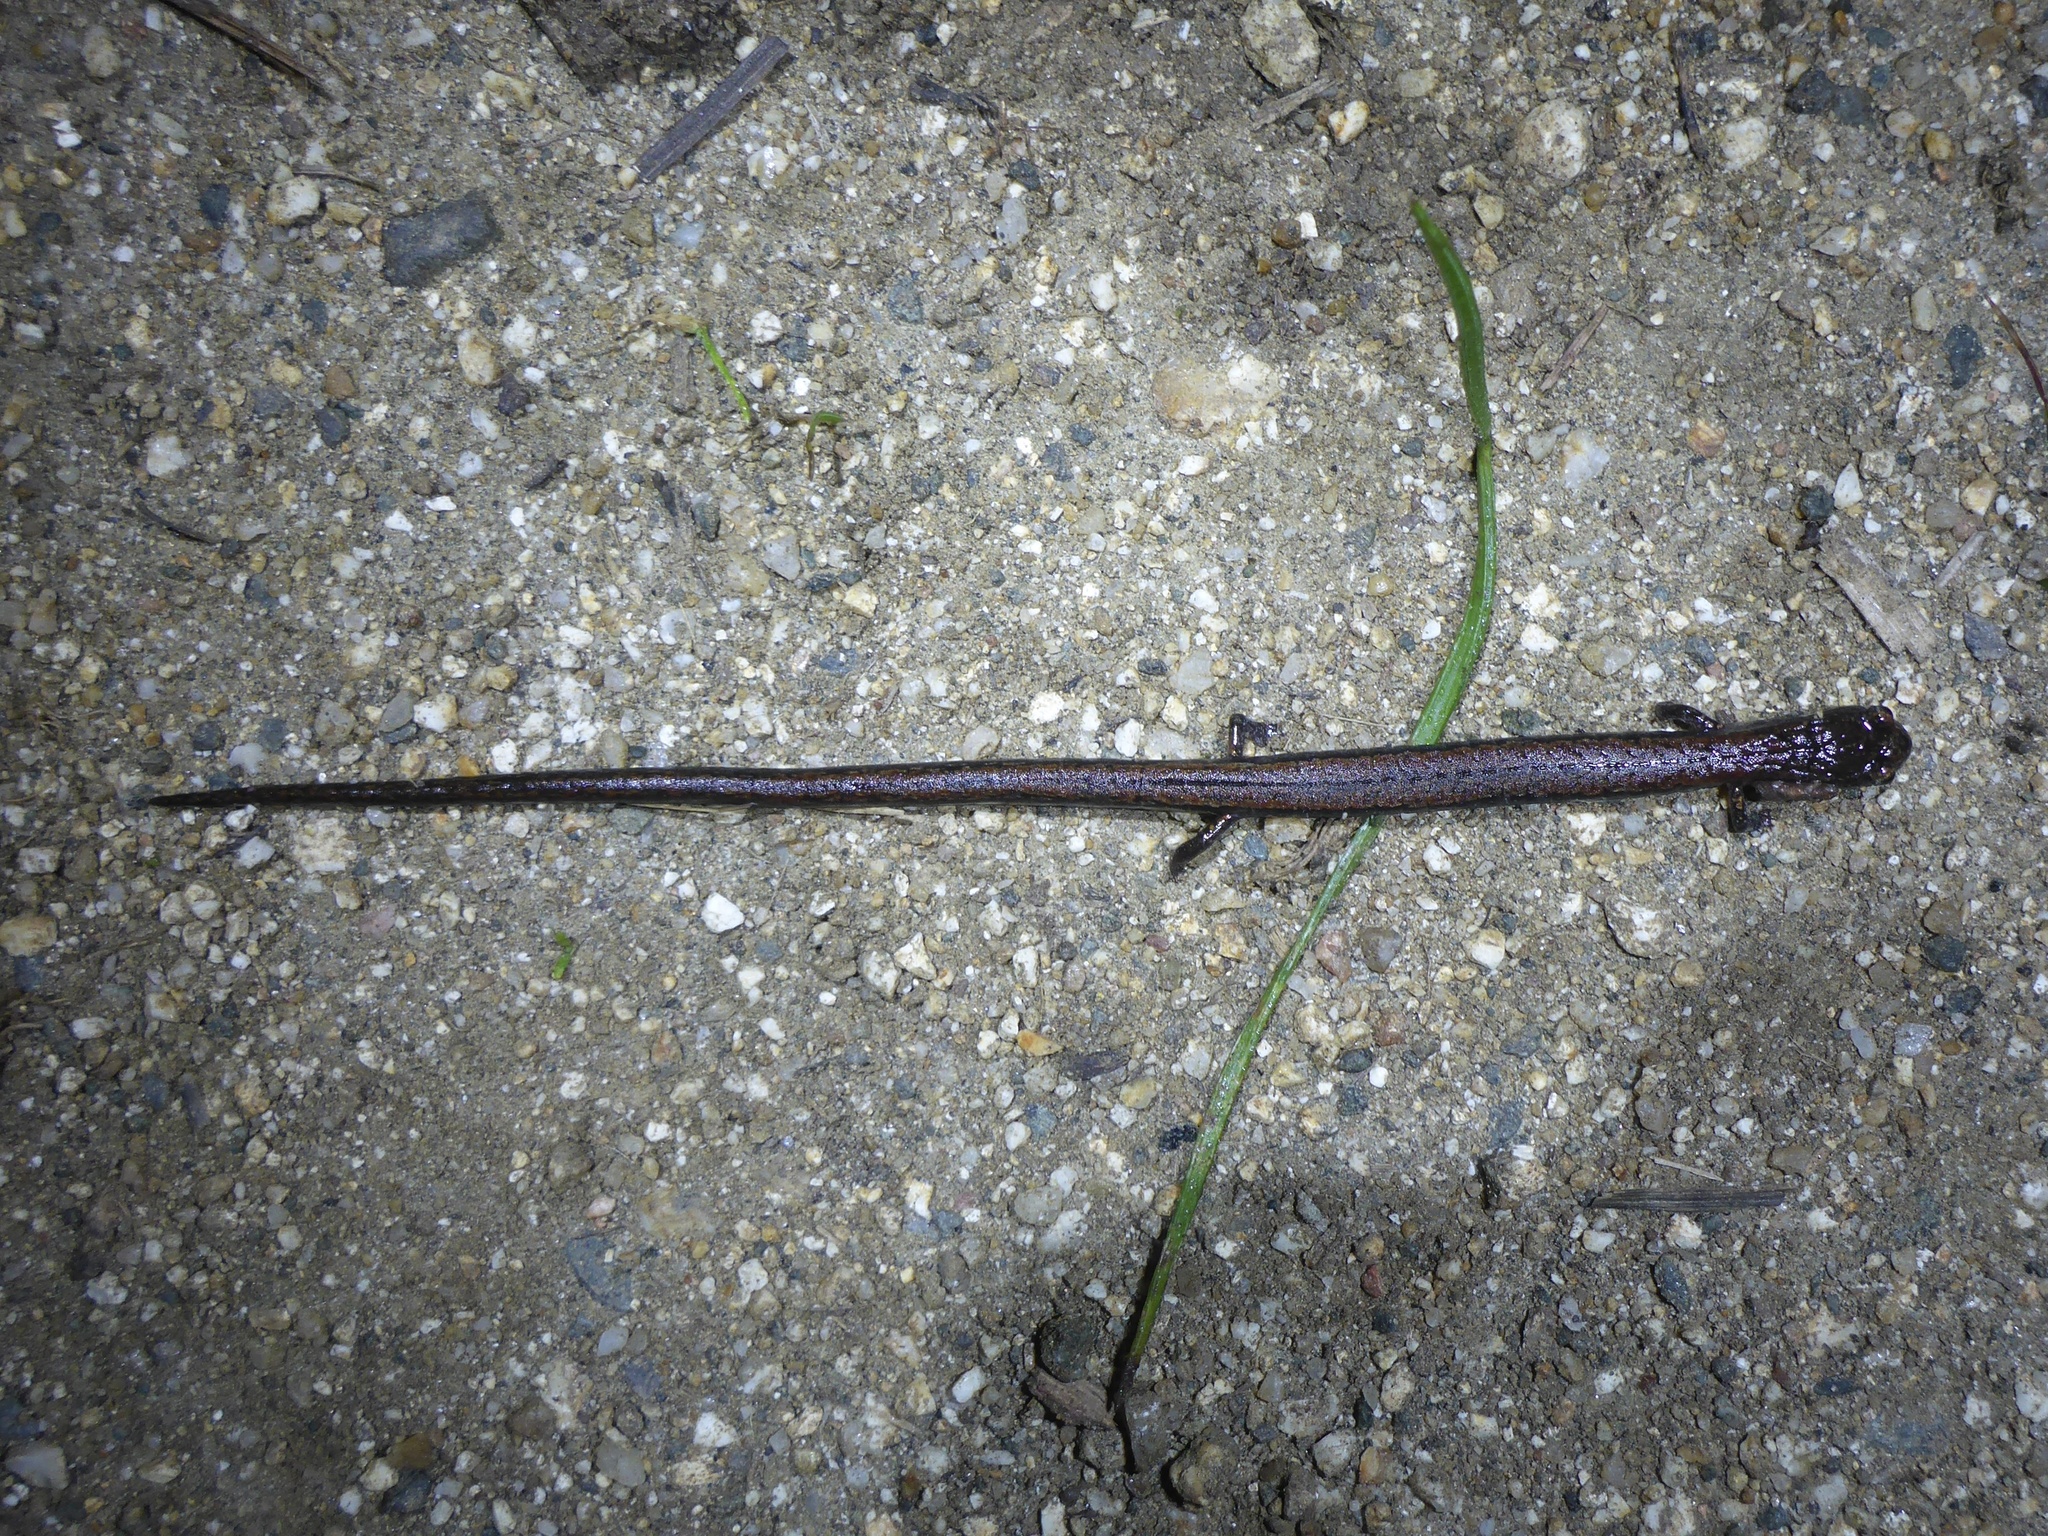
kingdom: Animalia
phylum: Chordata
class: Amphibia
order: Caudata
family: Plethodontidae
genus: Batrachoseps
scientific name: Batrachoseps attenuatus
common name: California slender salamander
